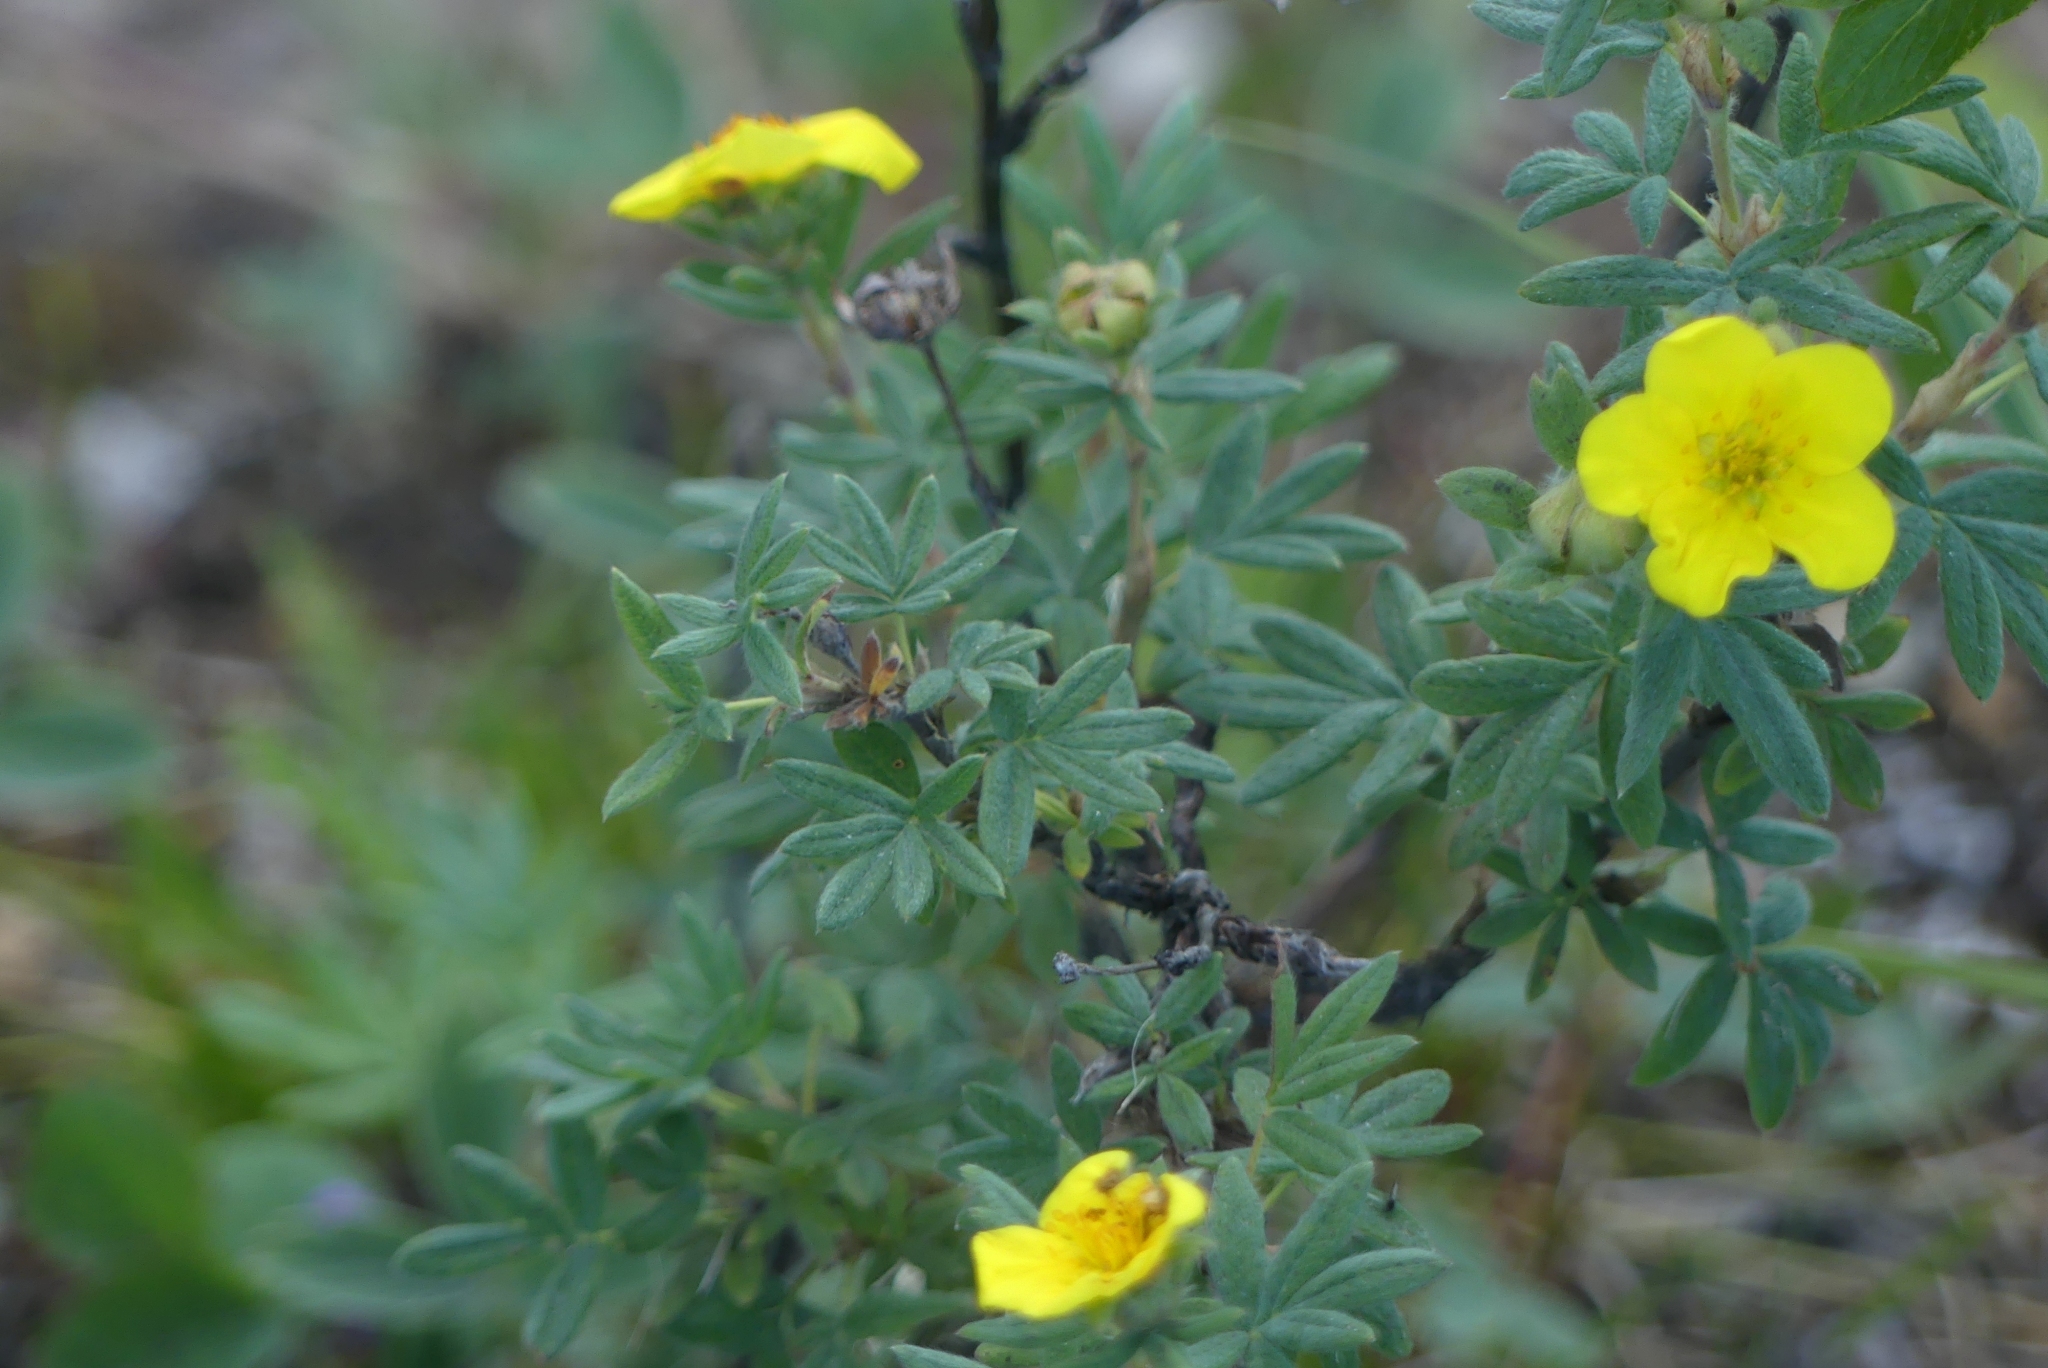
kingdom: Plantae
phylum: Tracheophyta
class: Magnoliopsida
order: Rosales
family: Rosaceae
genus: Dasiphora
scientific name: Dasiphora fruticosa
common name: Shrubby cinquefoil
